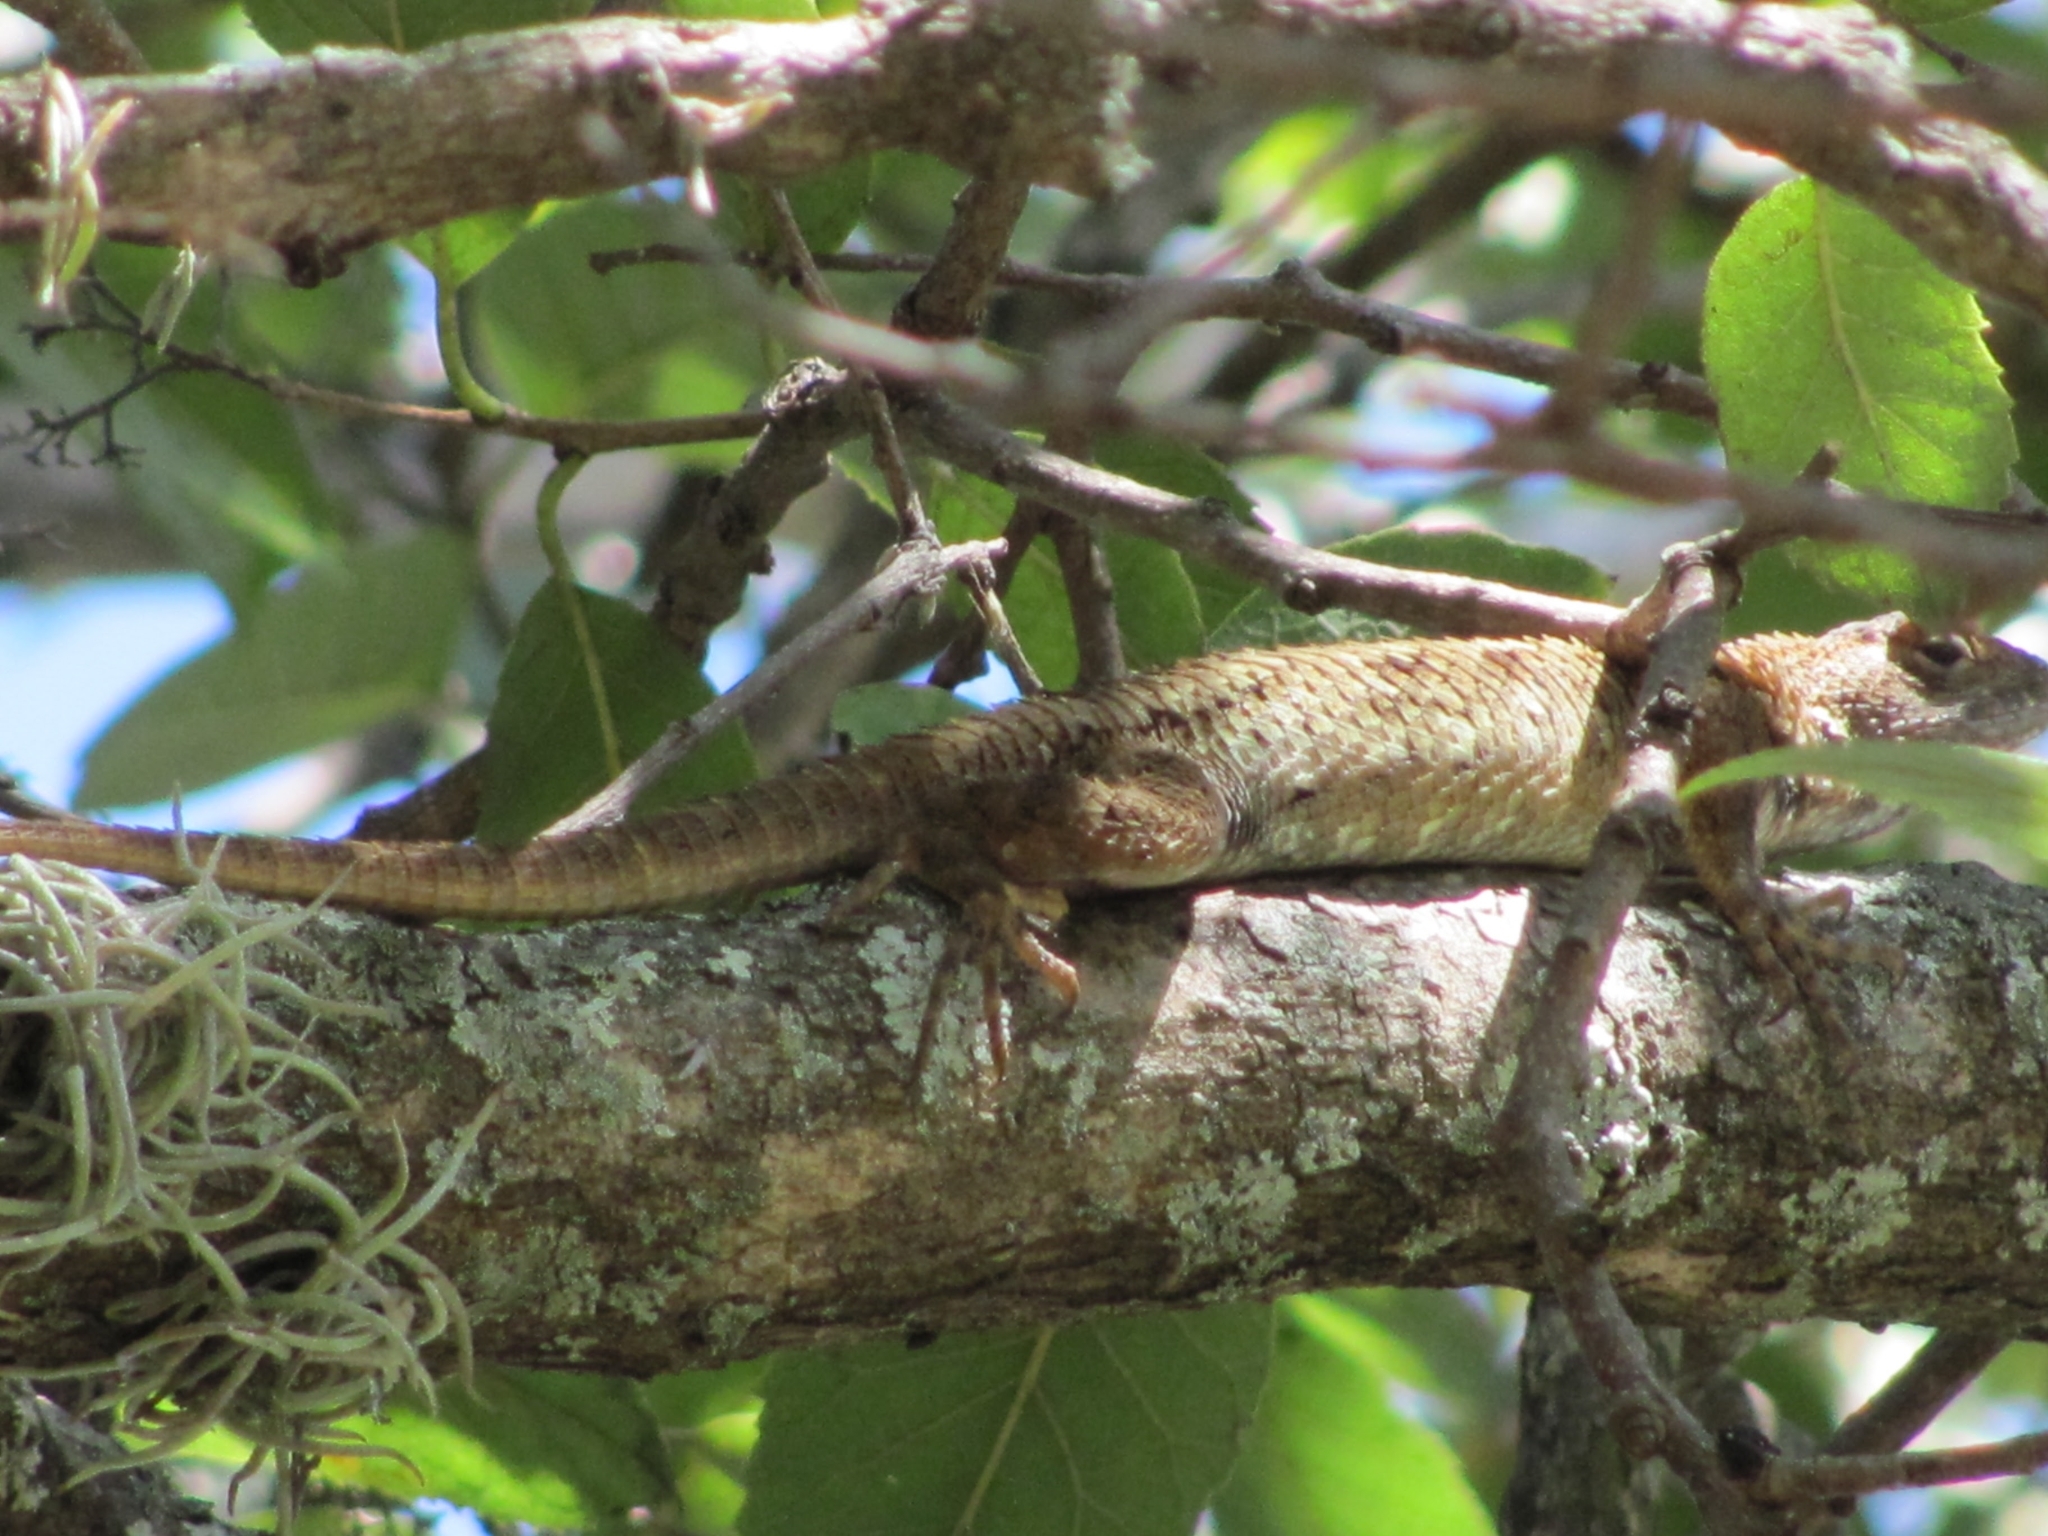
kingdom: Animalia
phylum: Chordata
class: Squamata
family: Phrynosomatidae
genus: Sceloporus
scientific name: Sceloporus horridus
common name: Few-pored rough lizard
